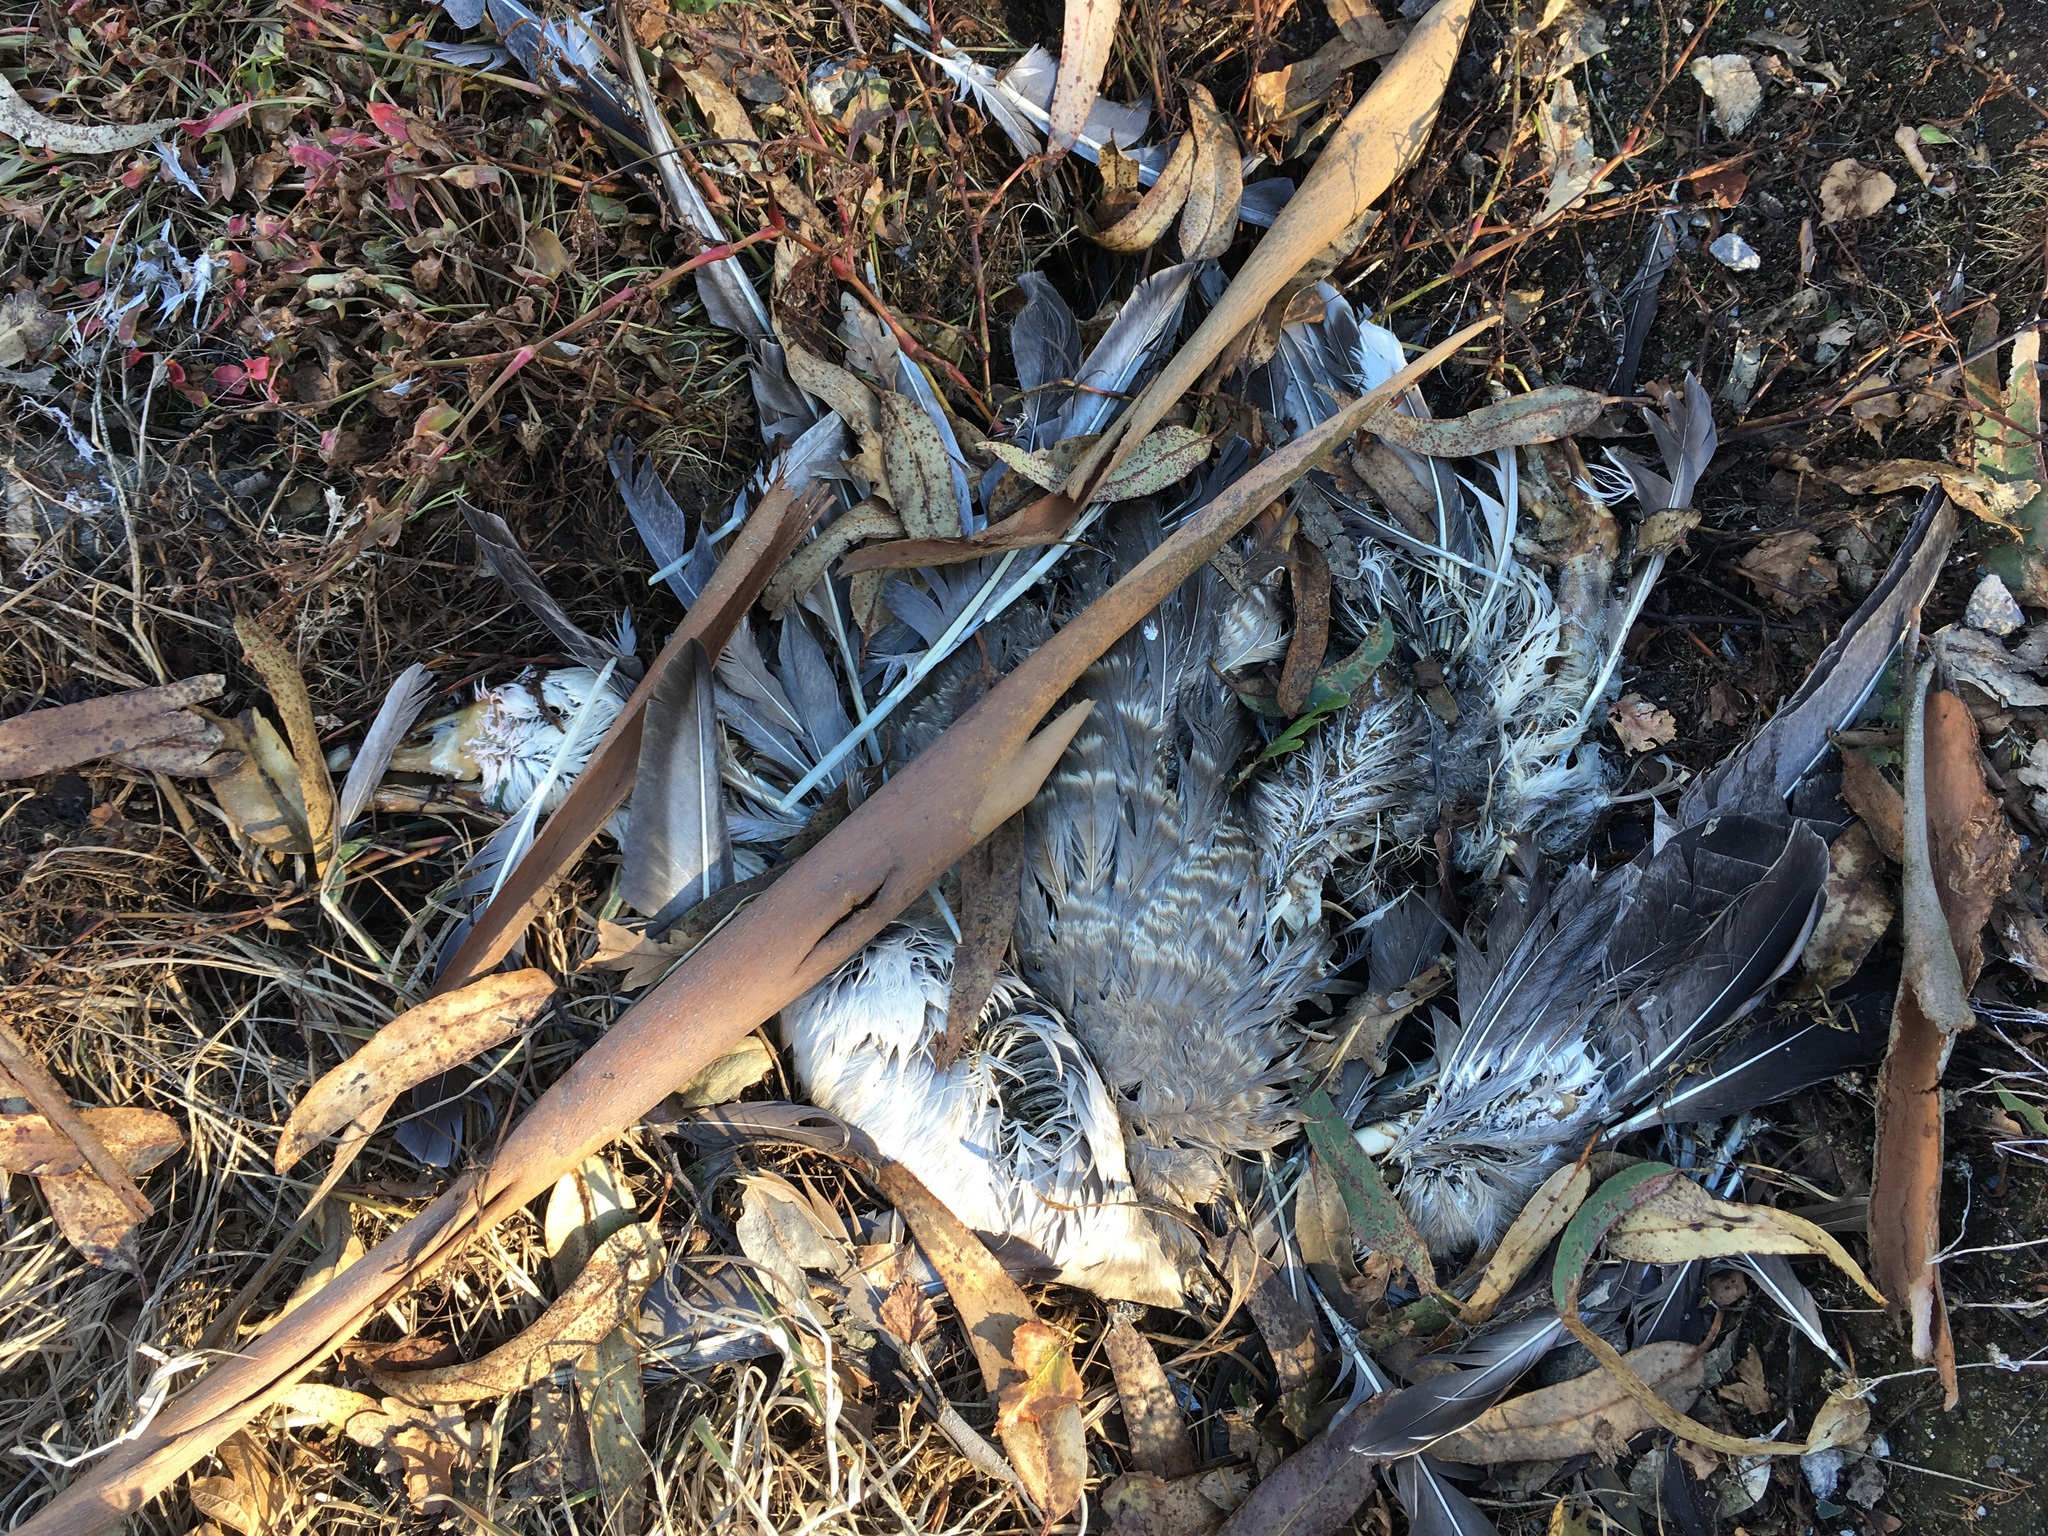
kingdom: Animalia
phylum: Chordata
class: Aves
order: Anseriformes
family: Anatidae
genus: Anser
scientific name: Anser anser
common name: Greylag goose
